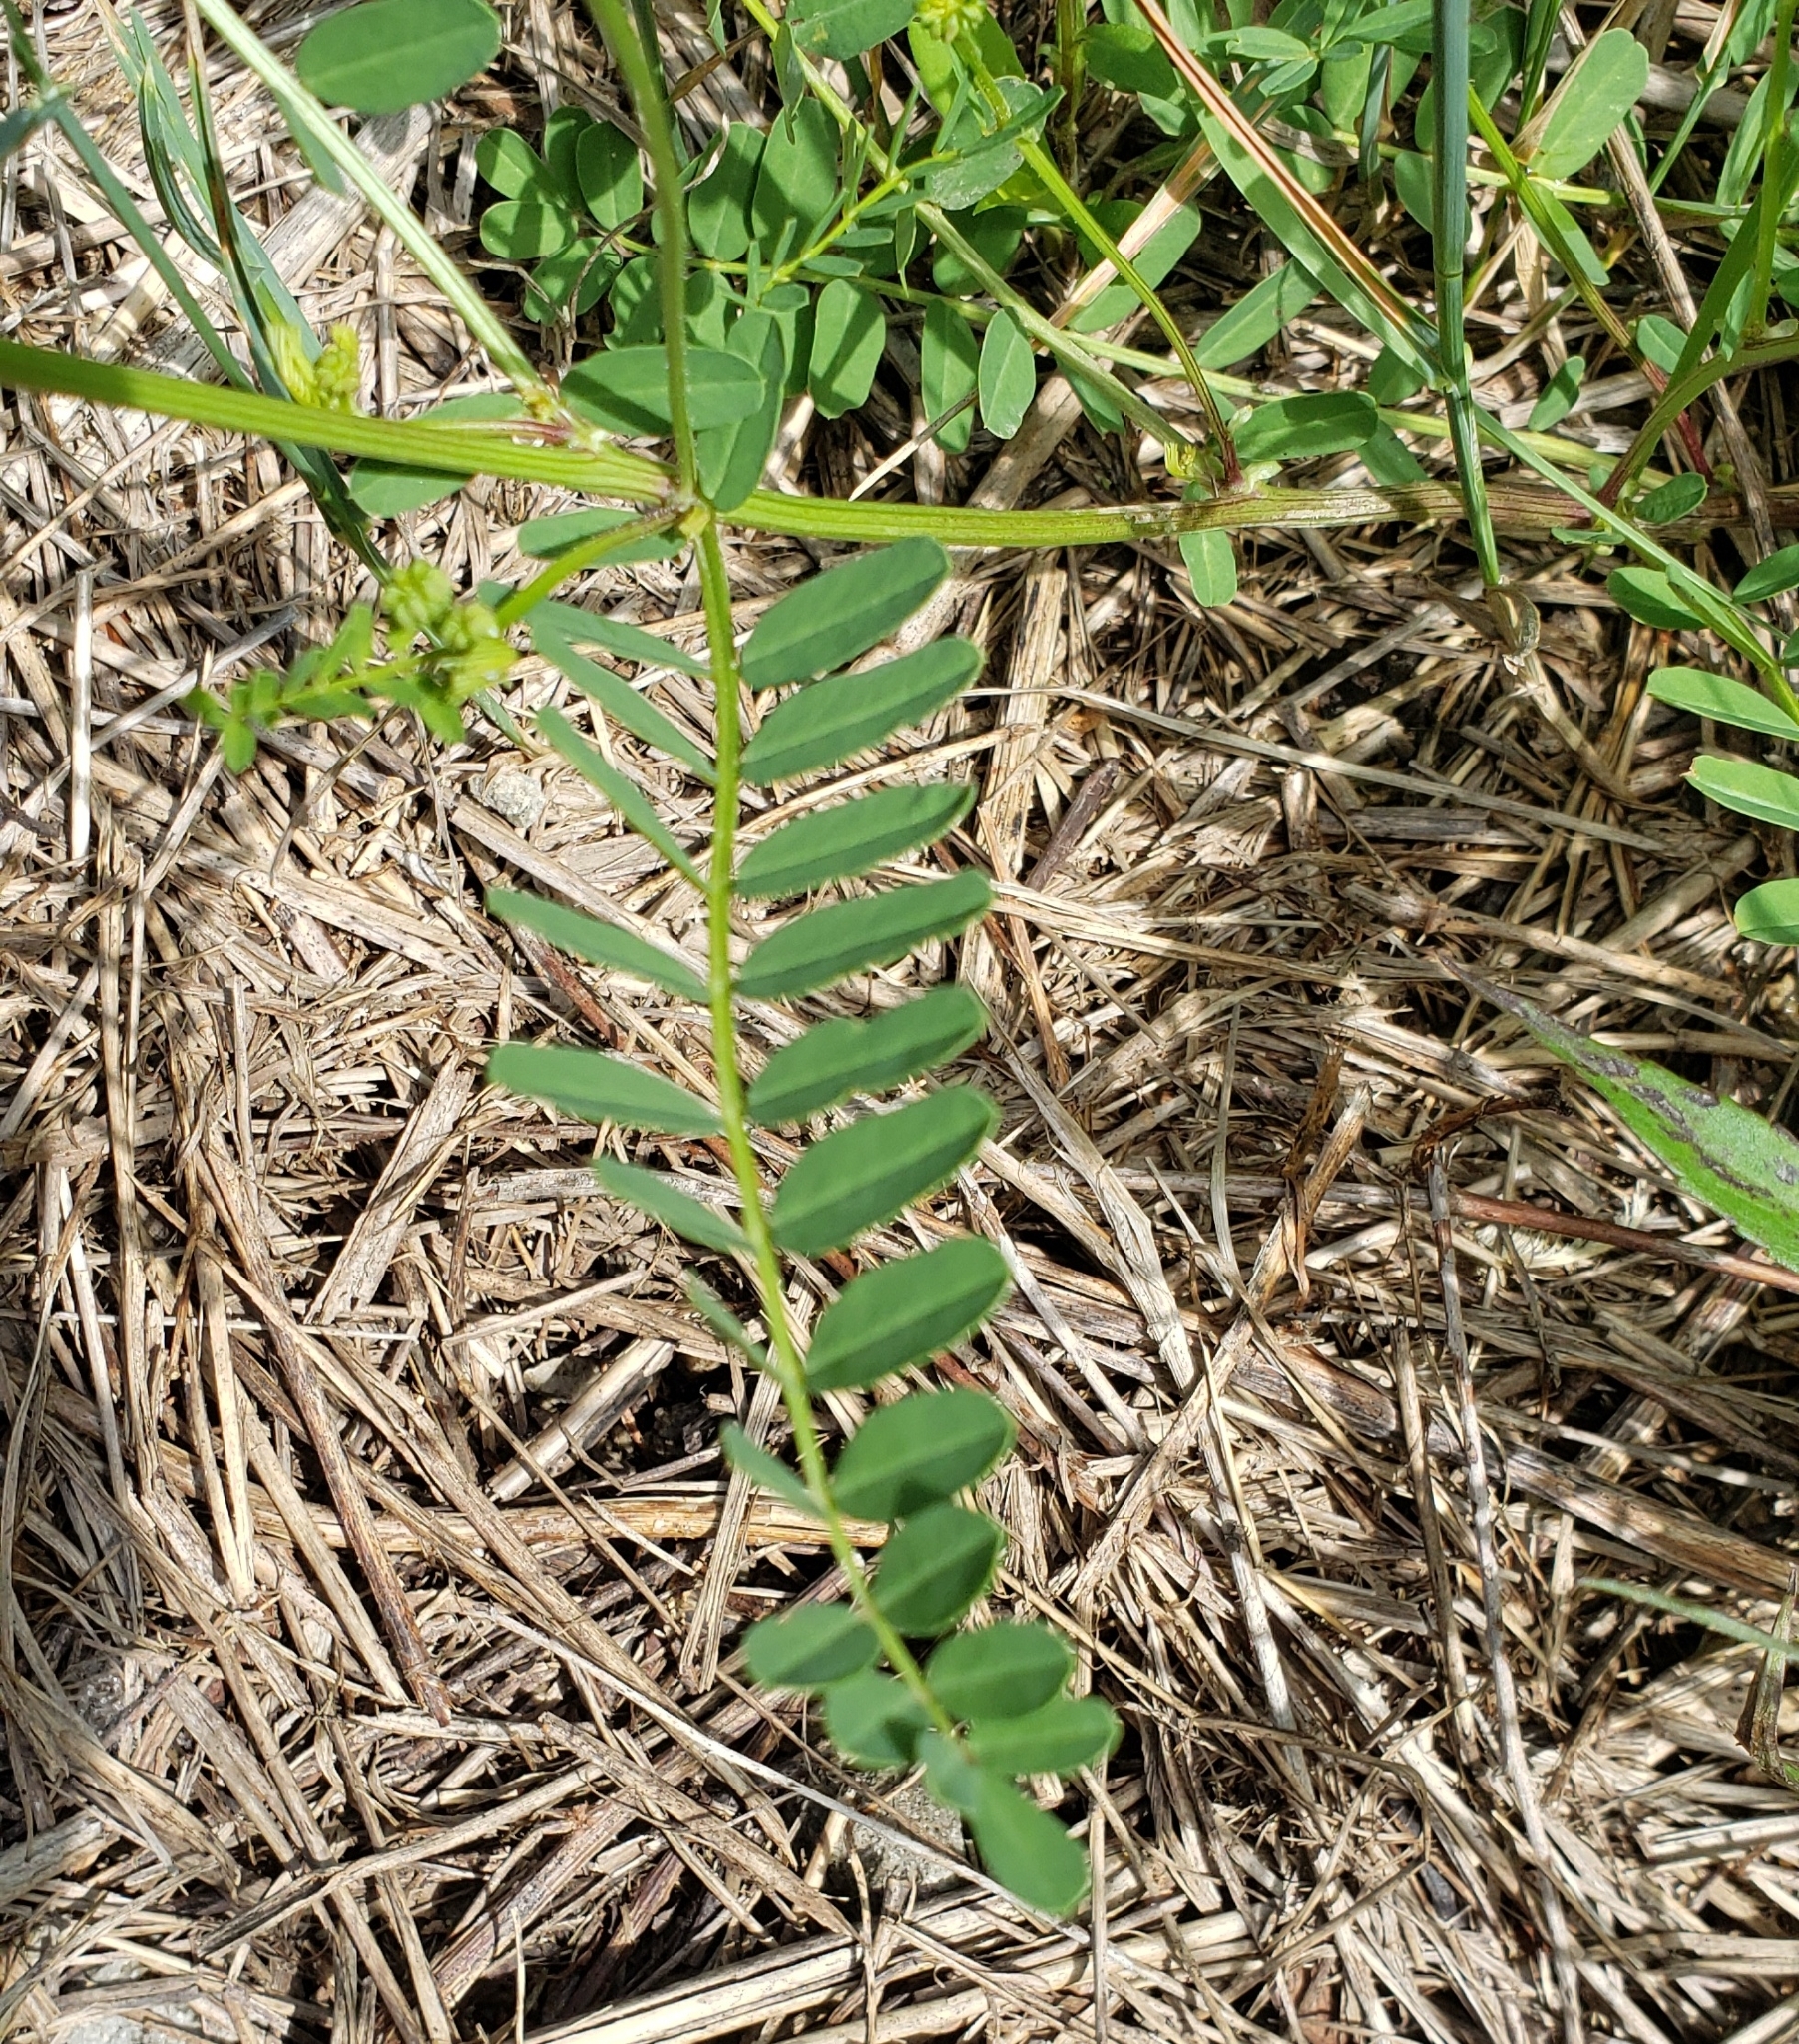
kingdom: Plantae
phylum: Tracheophyta
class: Magnoliopsida
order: Fabales
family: Fabaceae
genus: Coronilla
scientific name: Coronilla varia
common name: Crownvetch
